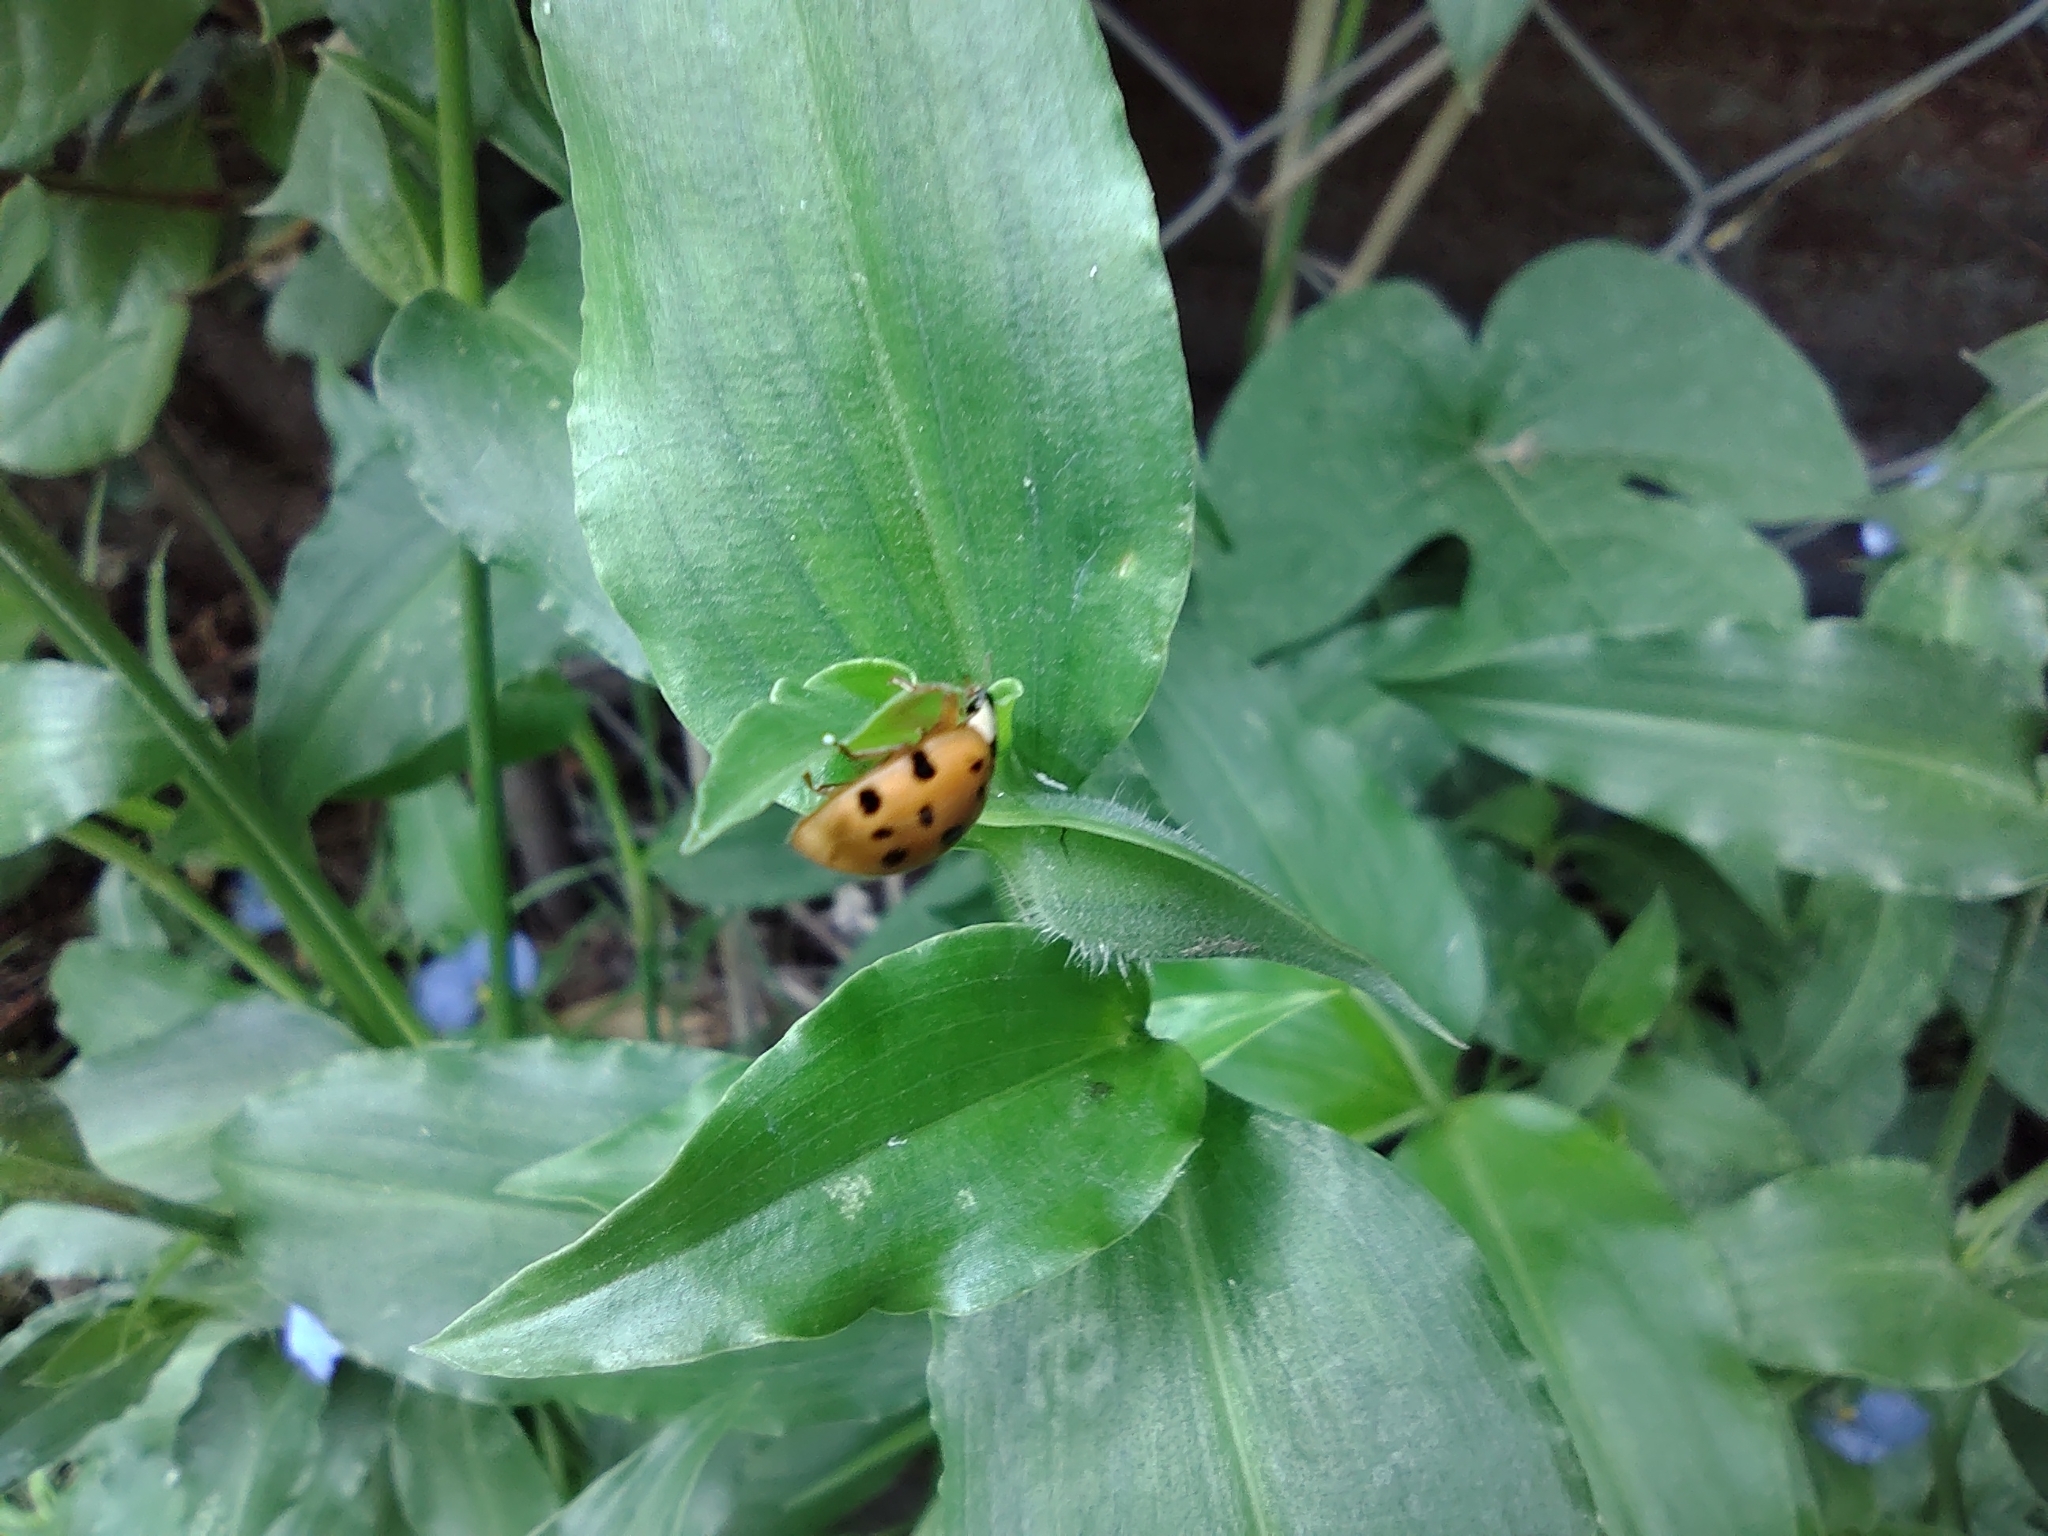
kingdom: Animalia
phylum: Arthropoda
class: Insecta
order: Coleoptera
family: Coccinellidae
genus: Harmonia
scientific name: Harmonia axyridis
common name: Harlequin ladybird
